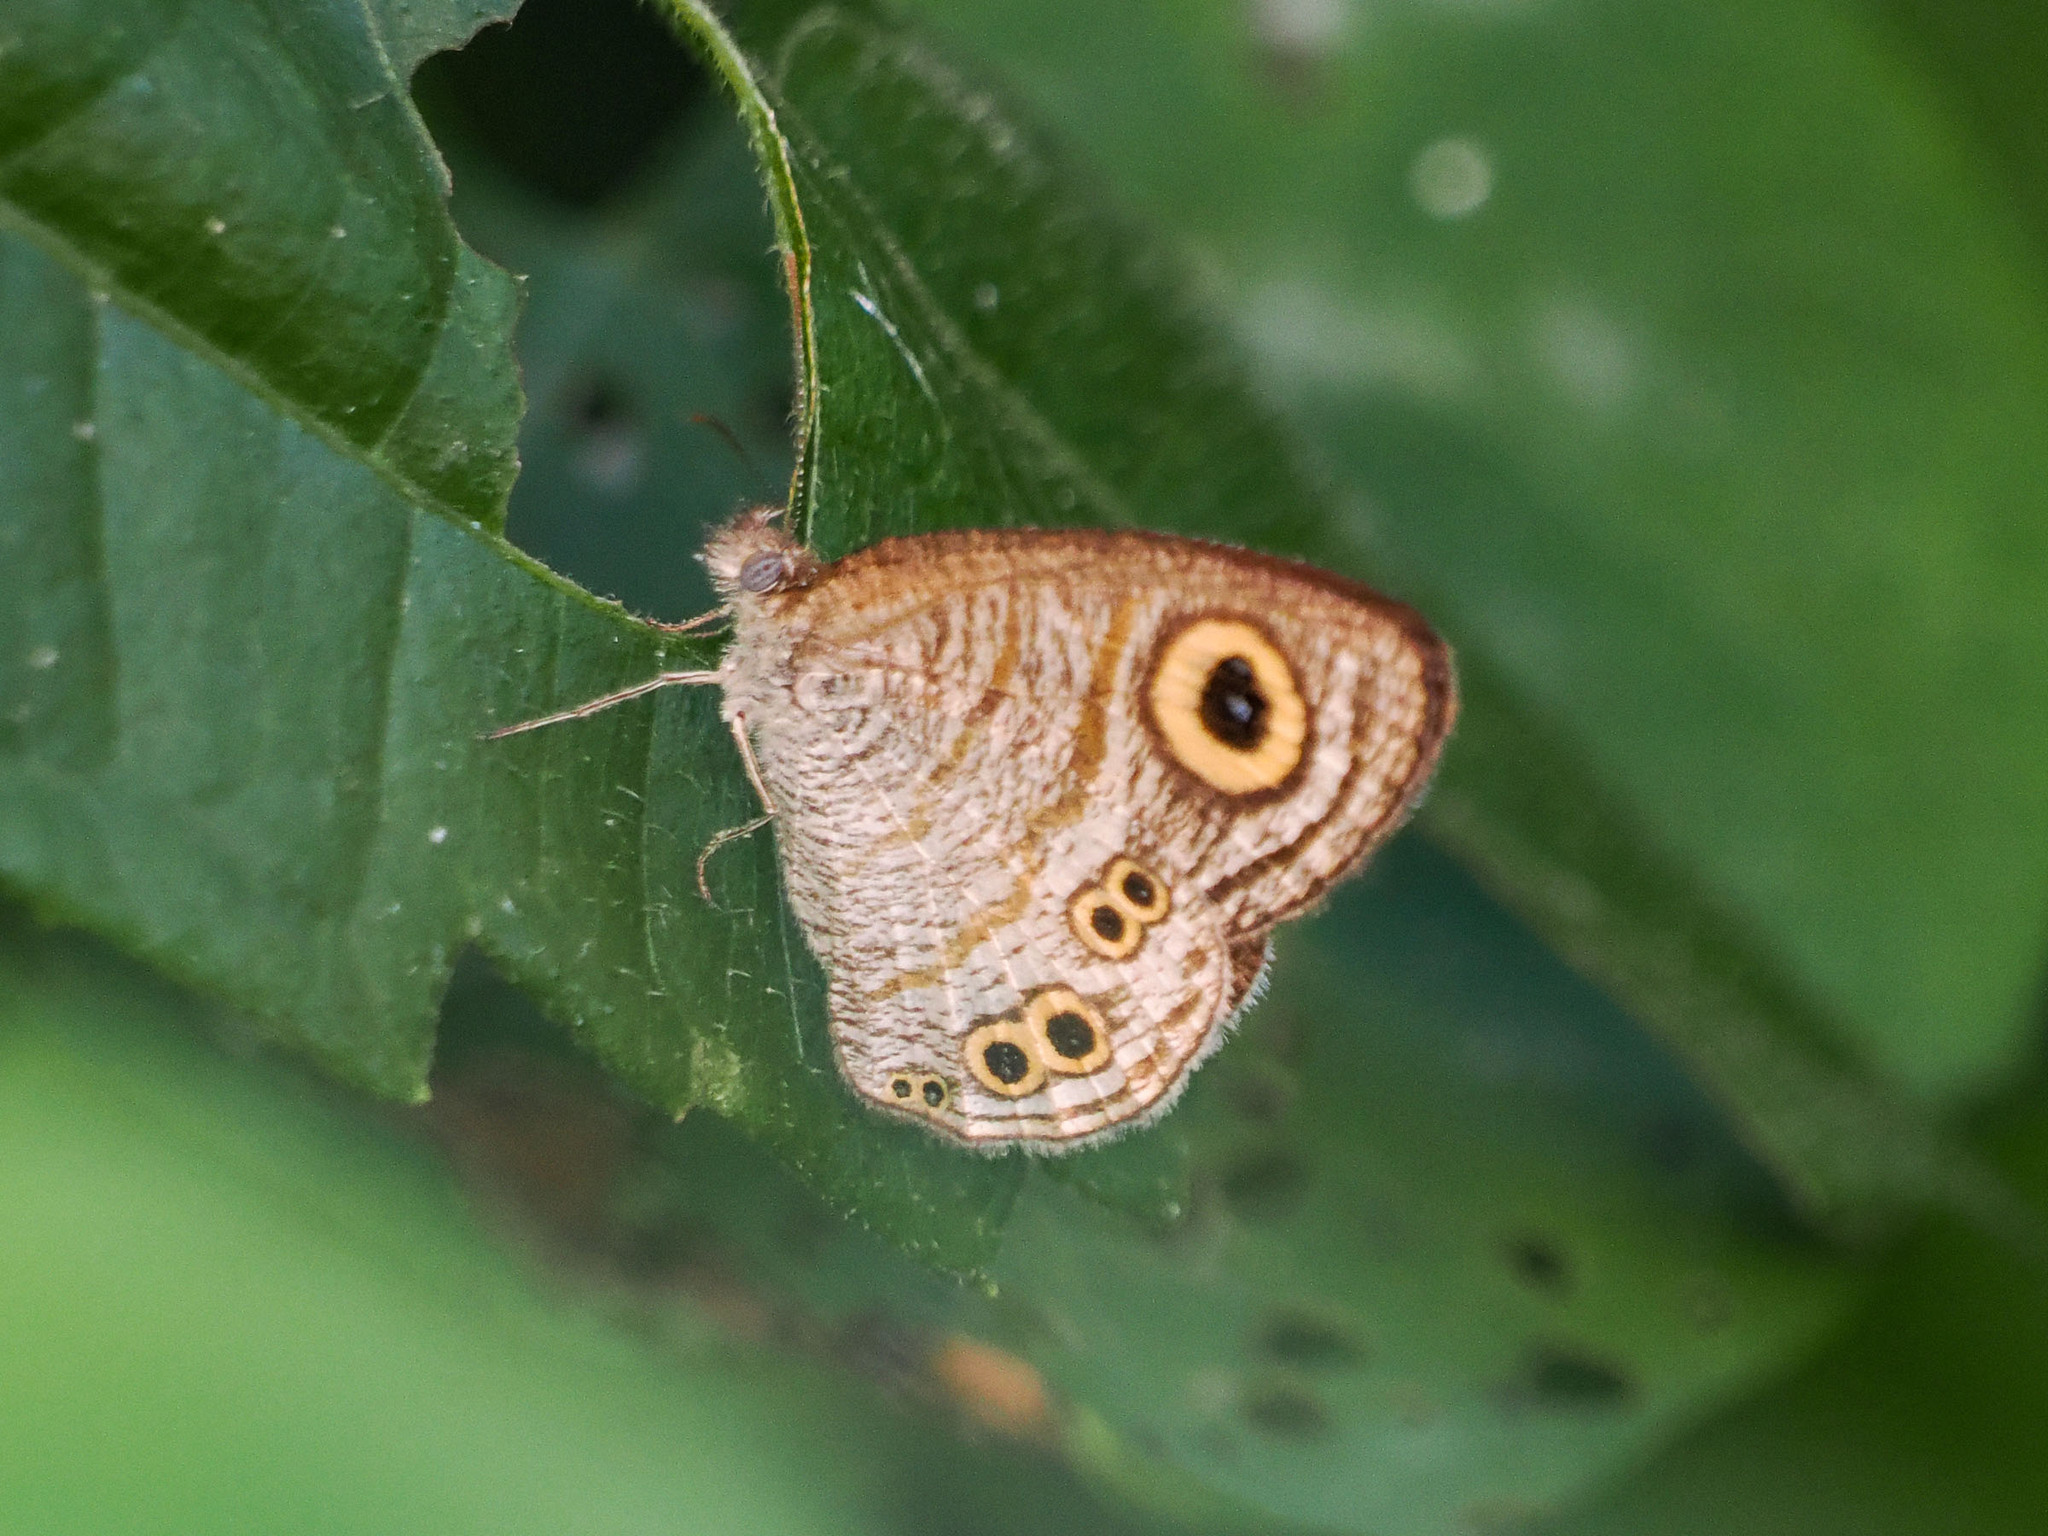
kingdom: Animalia
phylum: Arthropoda
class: Insecta
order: Lepidoptera
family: Nymphalidae
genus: Ypthima
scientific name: Ypthima stellera
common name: Philippine five-ring
